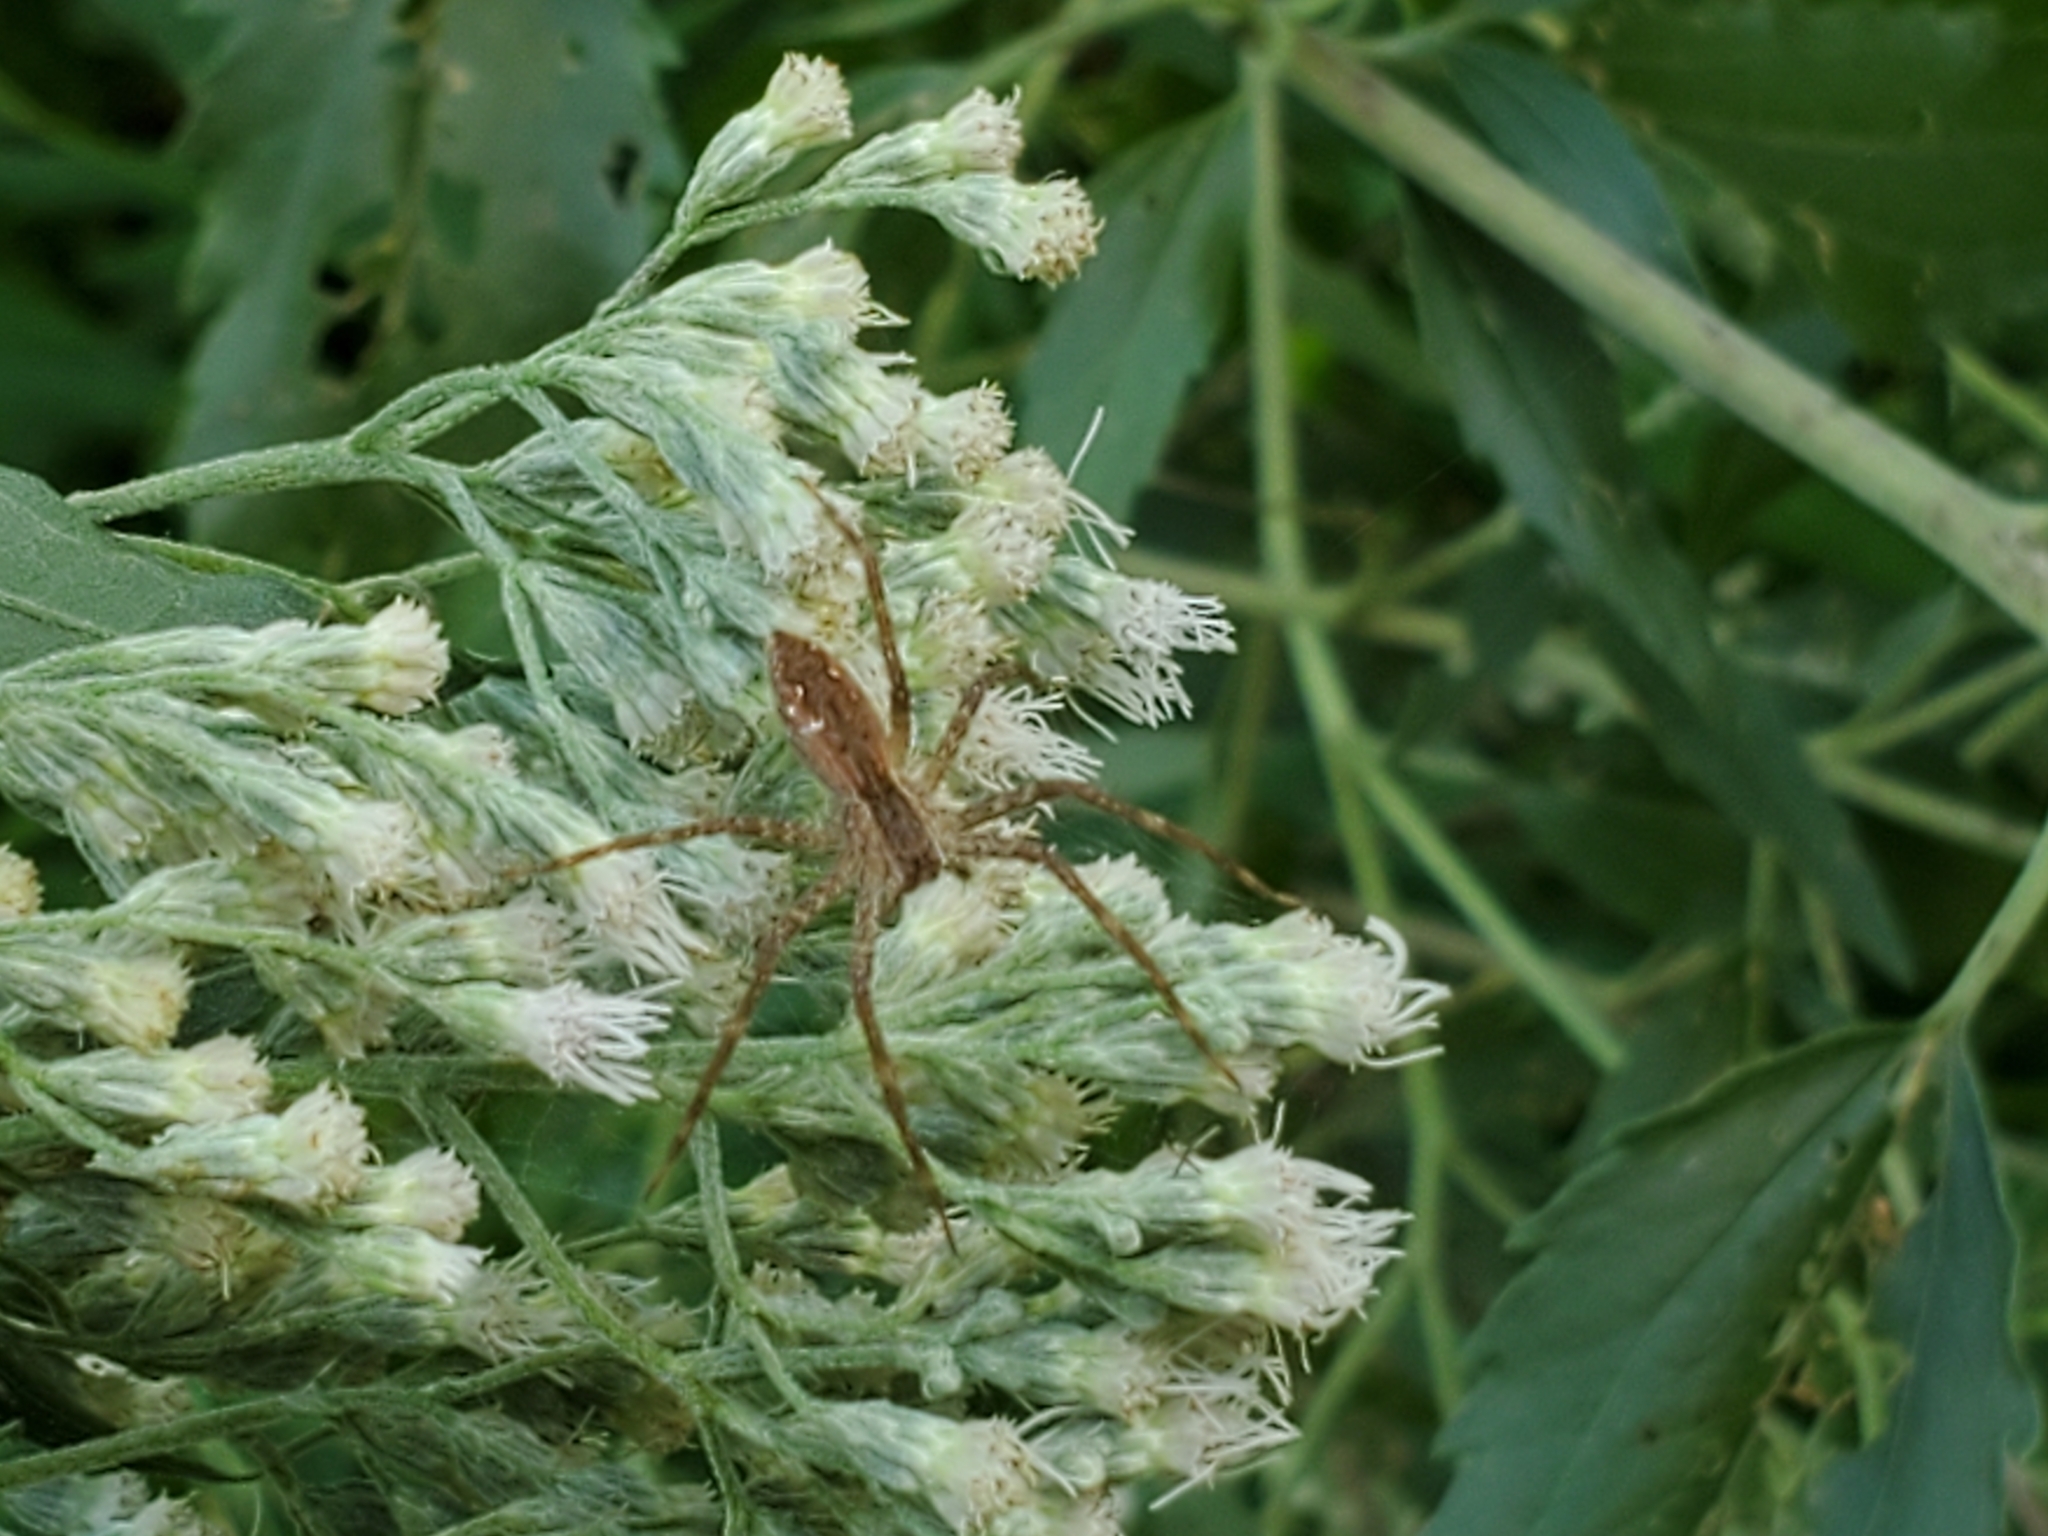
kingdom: Animalia
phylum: Arthropoda
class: Arachnida
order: Araneae
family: Pisauridae
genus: Pisaurina
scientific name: Pisaurina mira
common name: American nursery web spider
